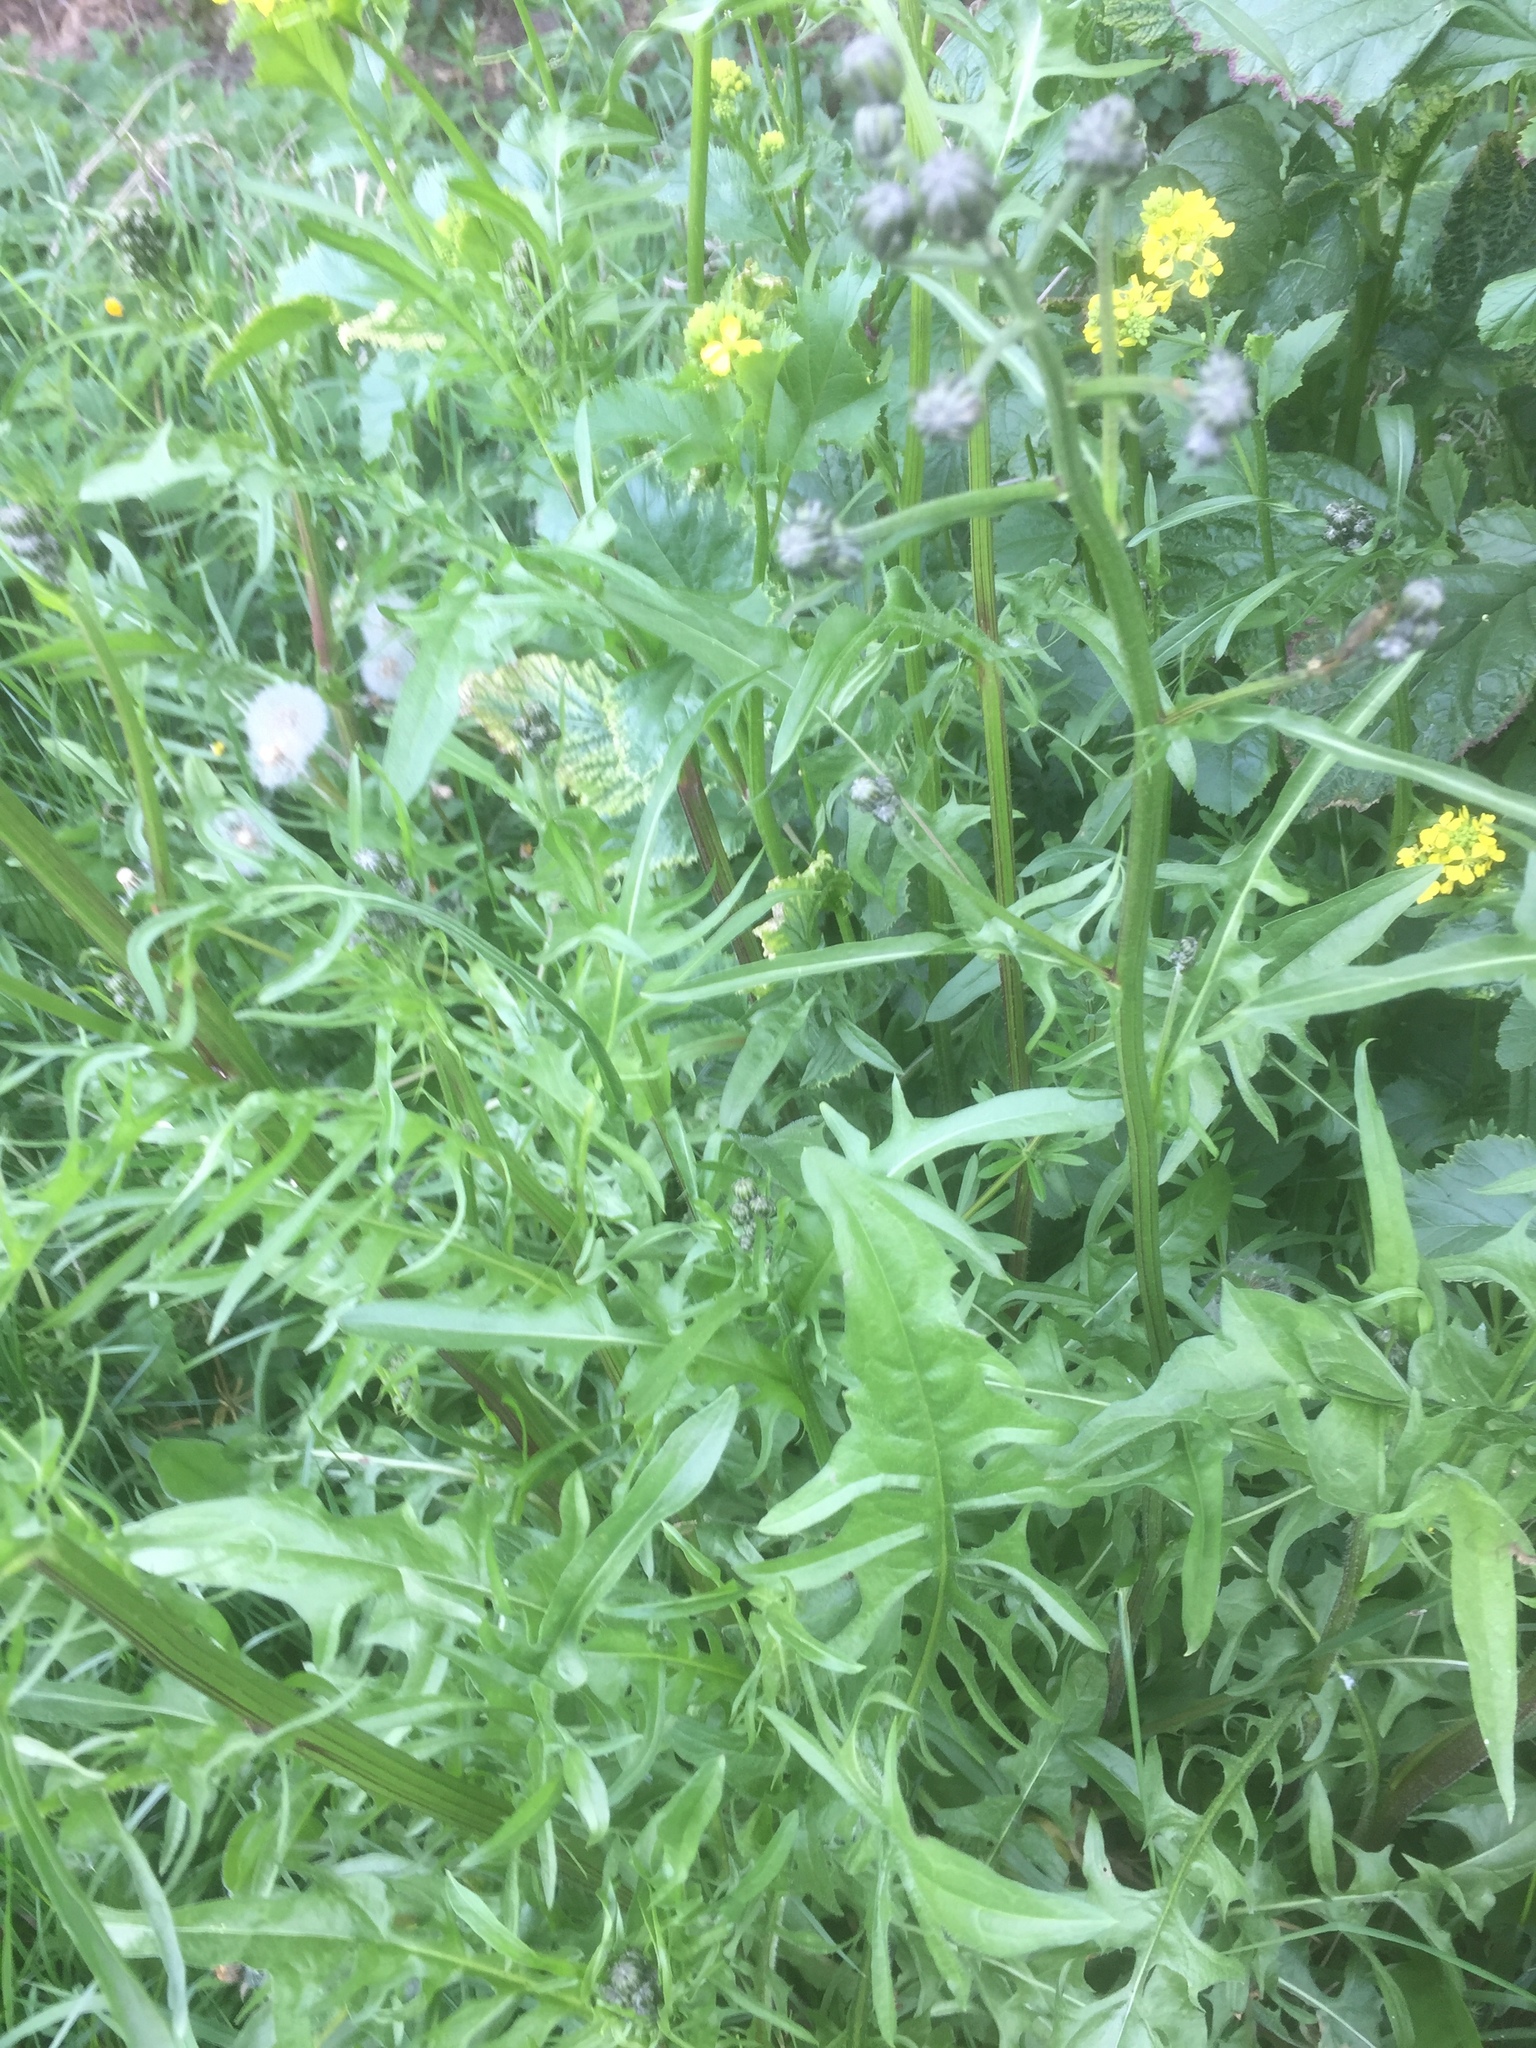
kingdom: Plantae
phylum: Tracheophyta
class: Magnoliopsida
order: Asterales
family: Asteraceae
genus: Crepis
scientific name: Crepis biennis
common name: Rough hawk's-beard
